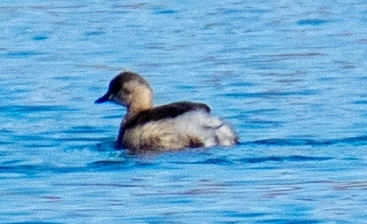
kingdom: Animalia
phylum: Chordata
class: Aves
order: Podicipediformes
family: Podicipedidae
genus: Tachybaptus
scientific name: Tachybaptus ruficollis
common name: Little grebe
